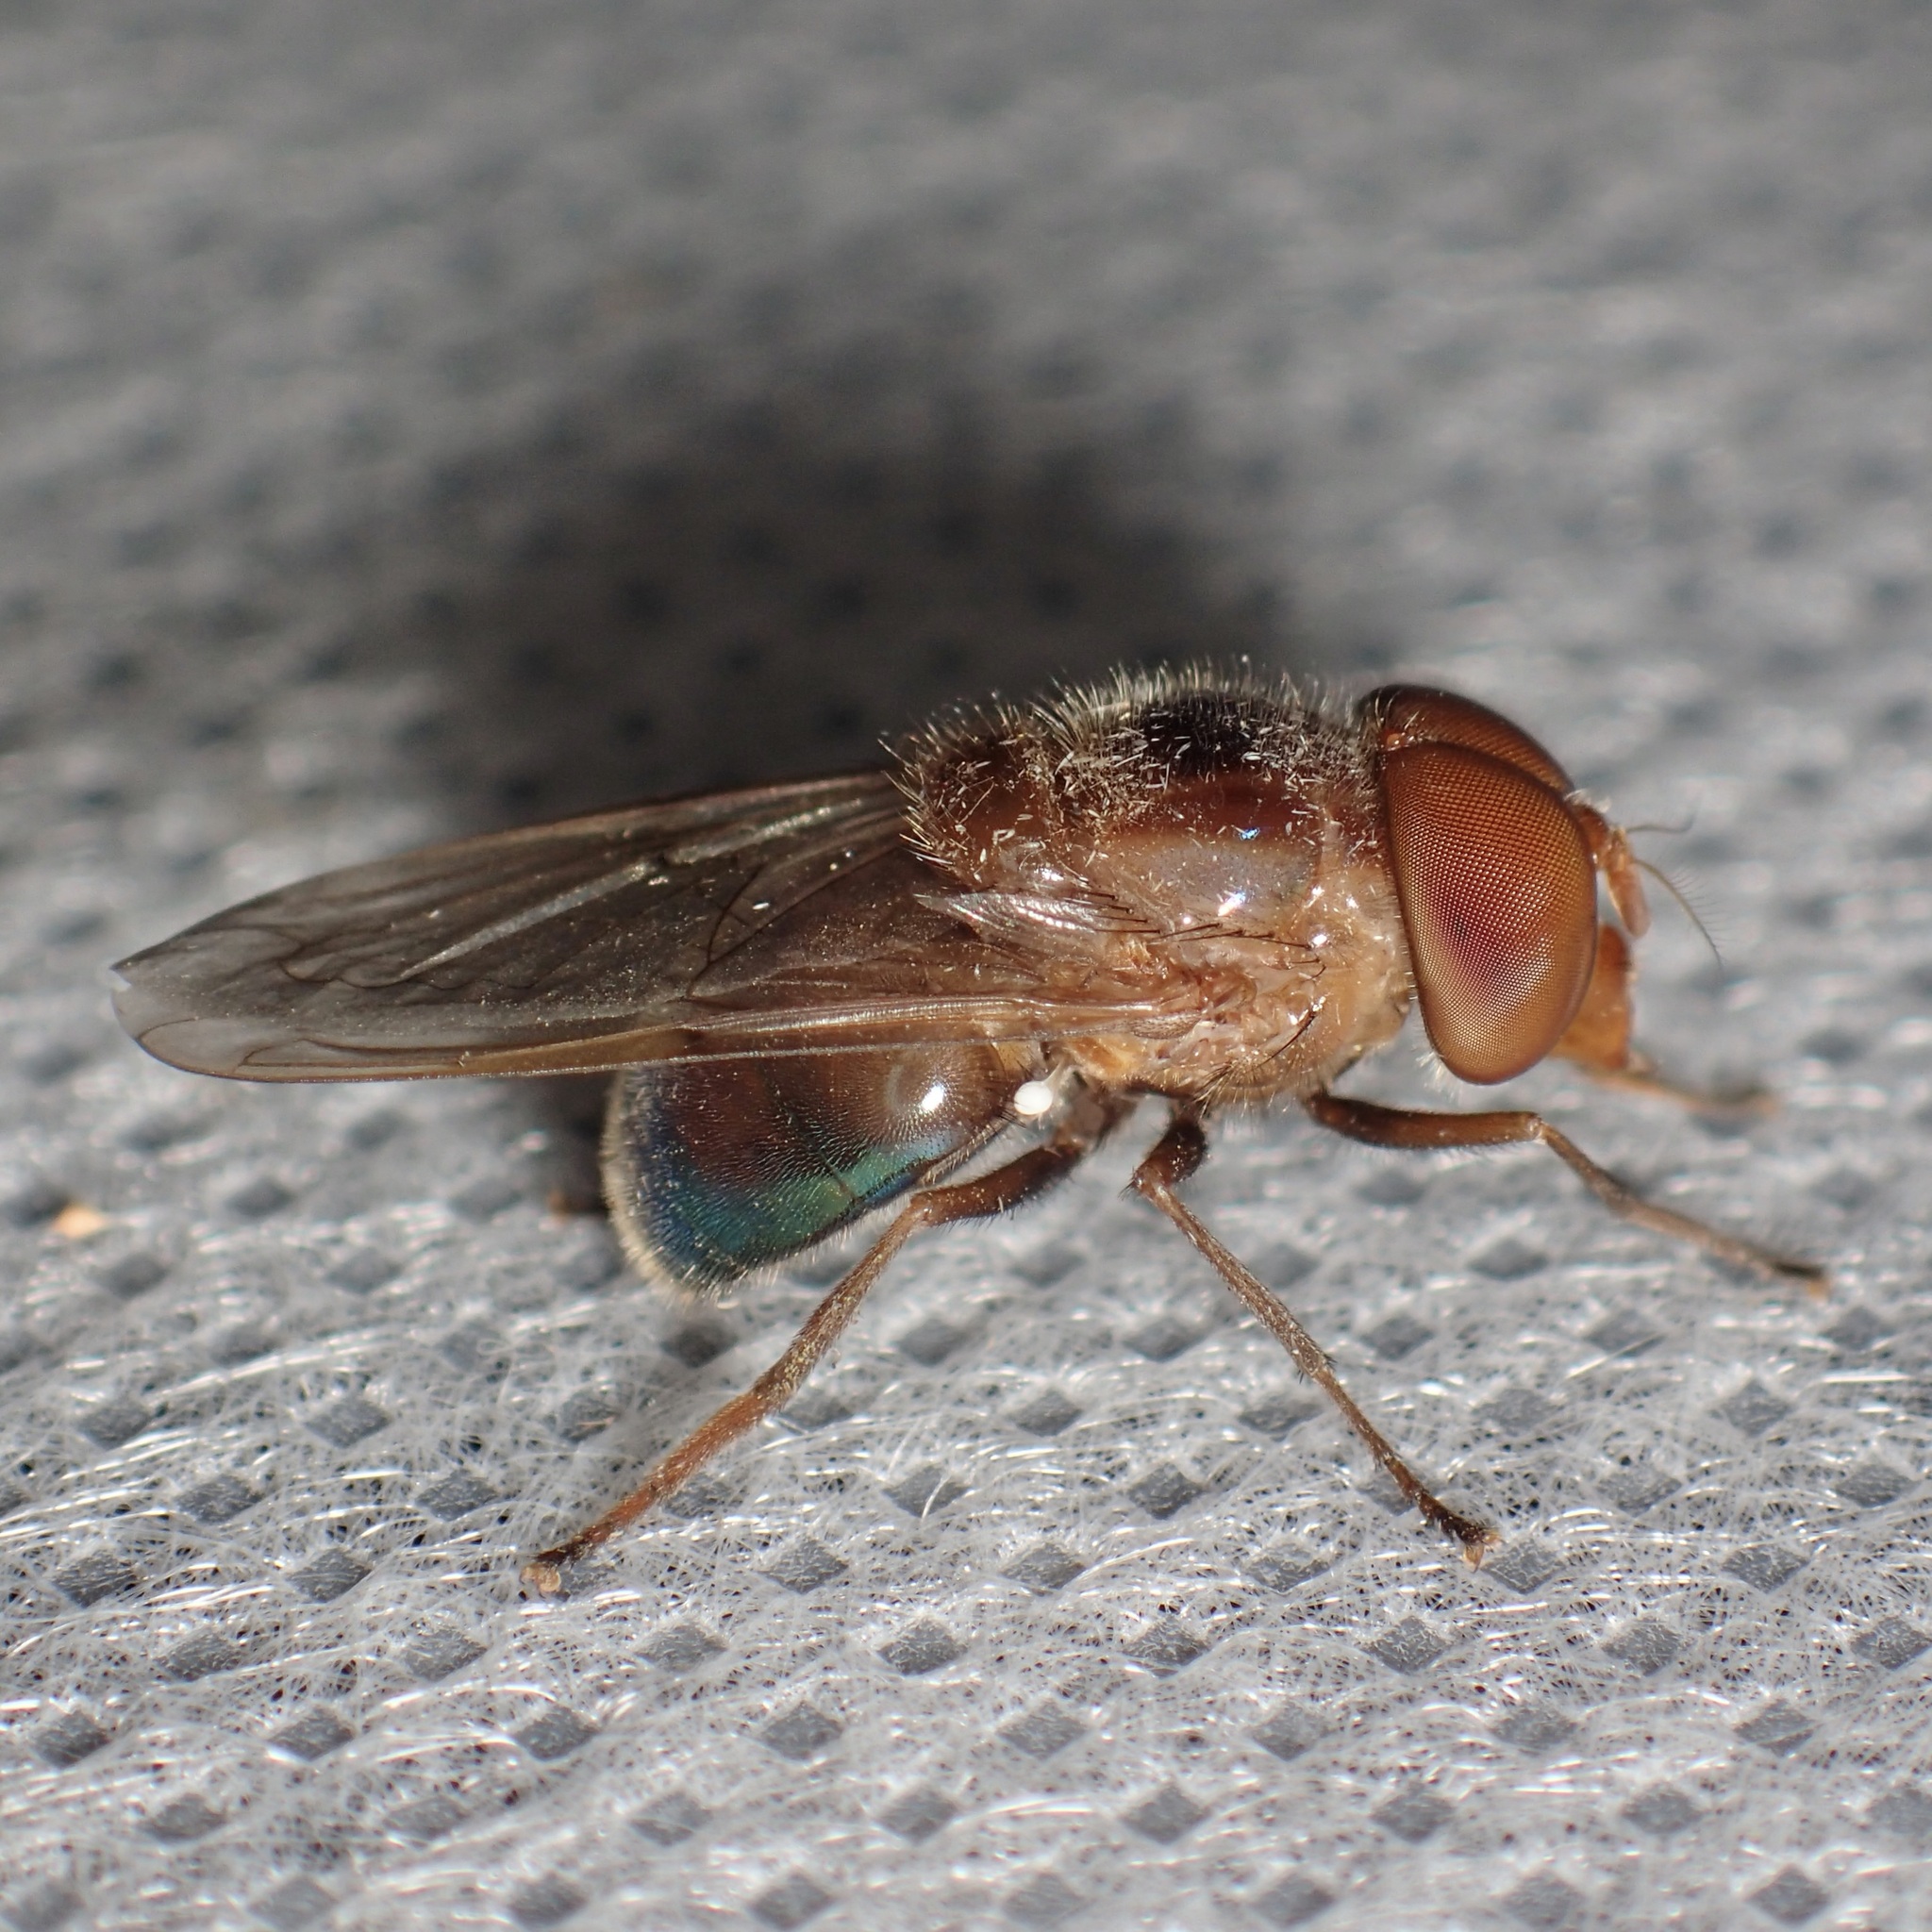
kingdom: Animalia
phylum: Arthropoda
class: Insecta
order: Diptera
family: Syrphidae
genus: Copestylum
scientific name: Copestylum opalescens
